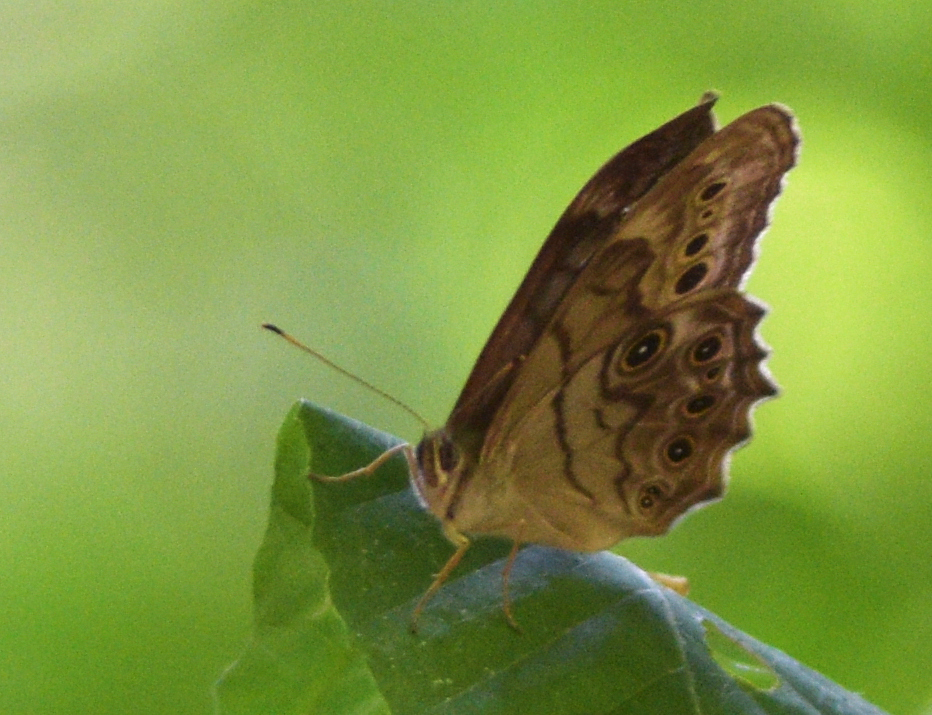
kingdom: Animalia
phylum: Arthropoda
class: Insecta
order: Lepidoptera
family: Nymphalidae
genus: Lethe
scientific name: Lethe anthedon
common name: Northern pearly-eye
